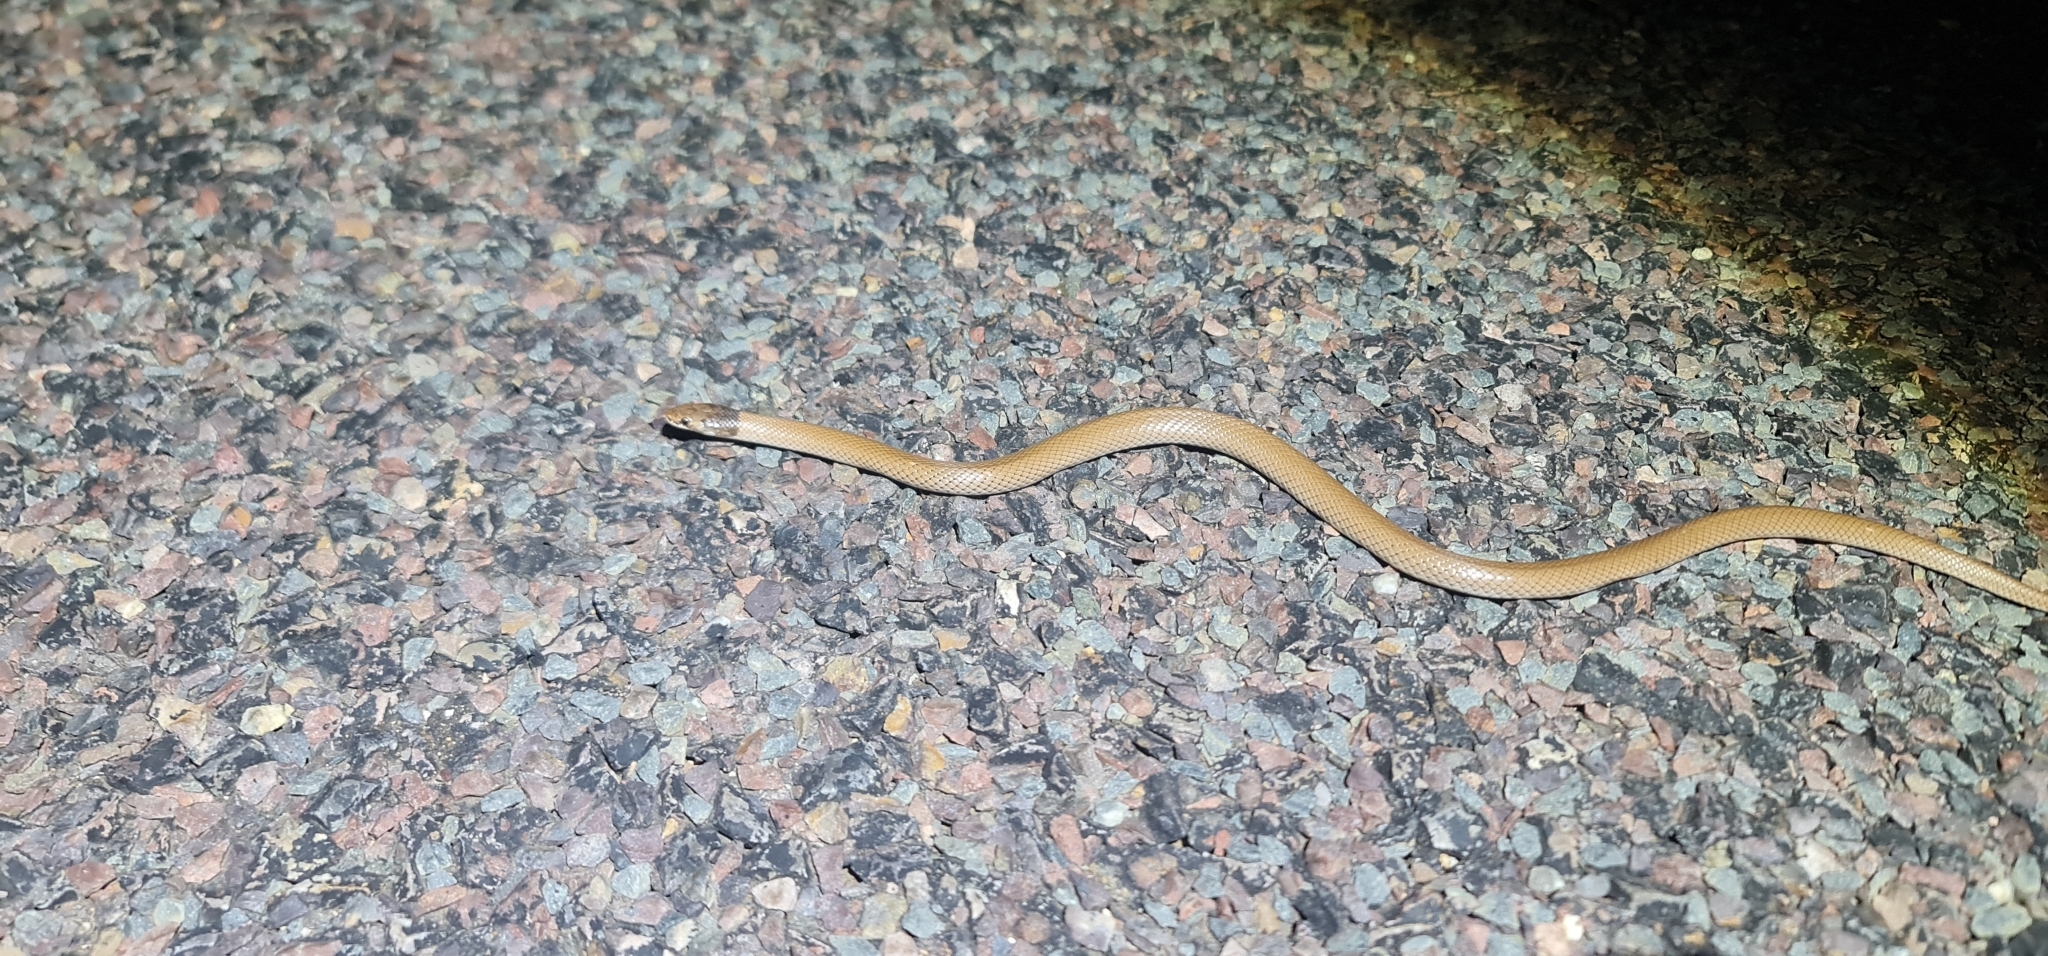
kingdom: Animalia
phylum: Chordata
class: Squamata
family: Elapidae
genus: Suta
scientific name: Suta suta
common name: Curl snake
